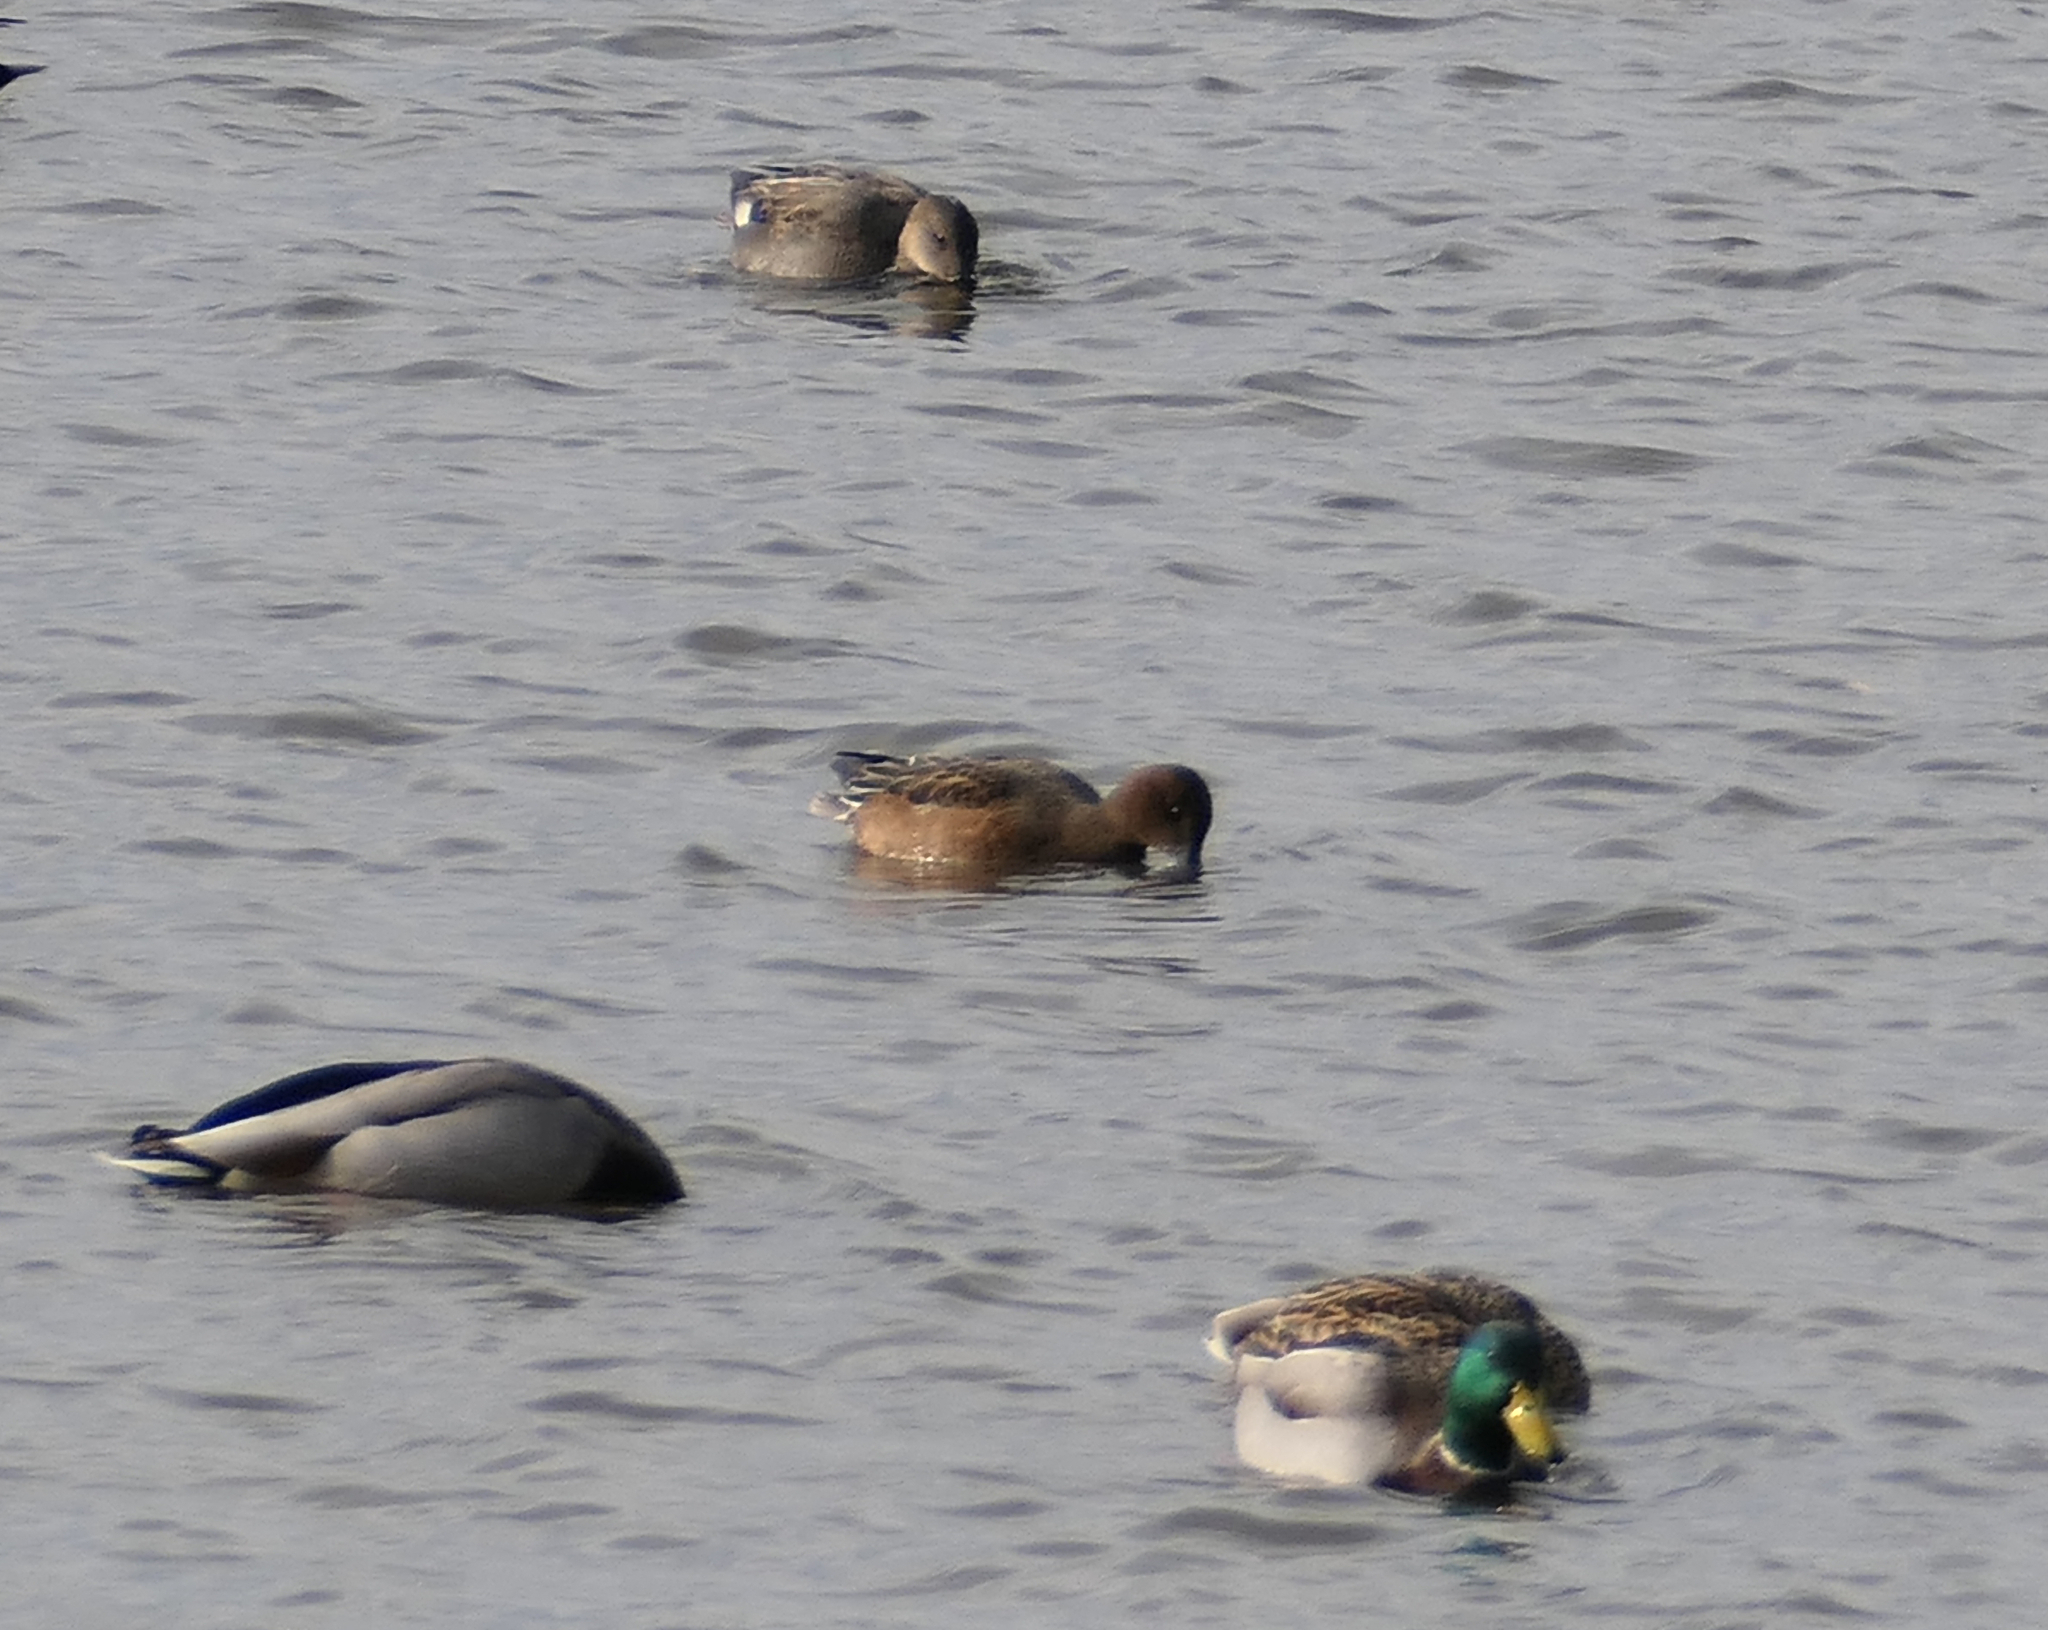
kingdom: Animalia
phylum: Chordata
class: Aves
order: Anseriformes
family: Anatidae
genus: Mareca
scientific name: Mareca strepera
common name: Gadwall
